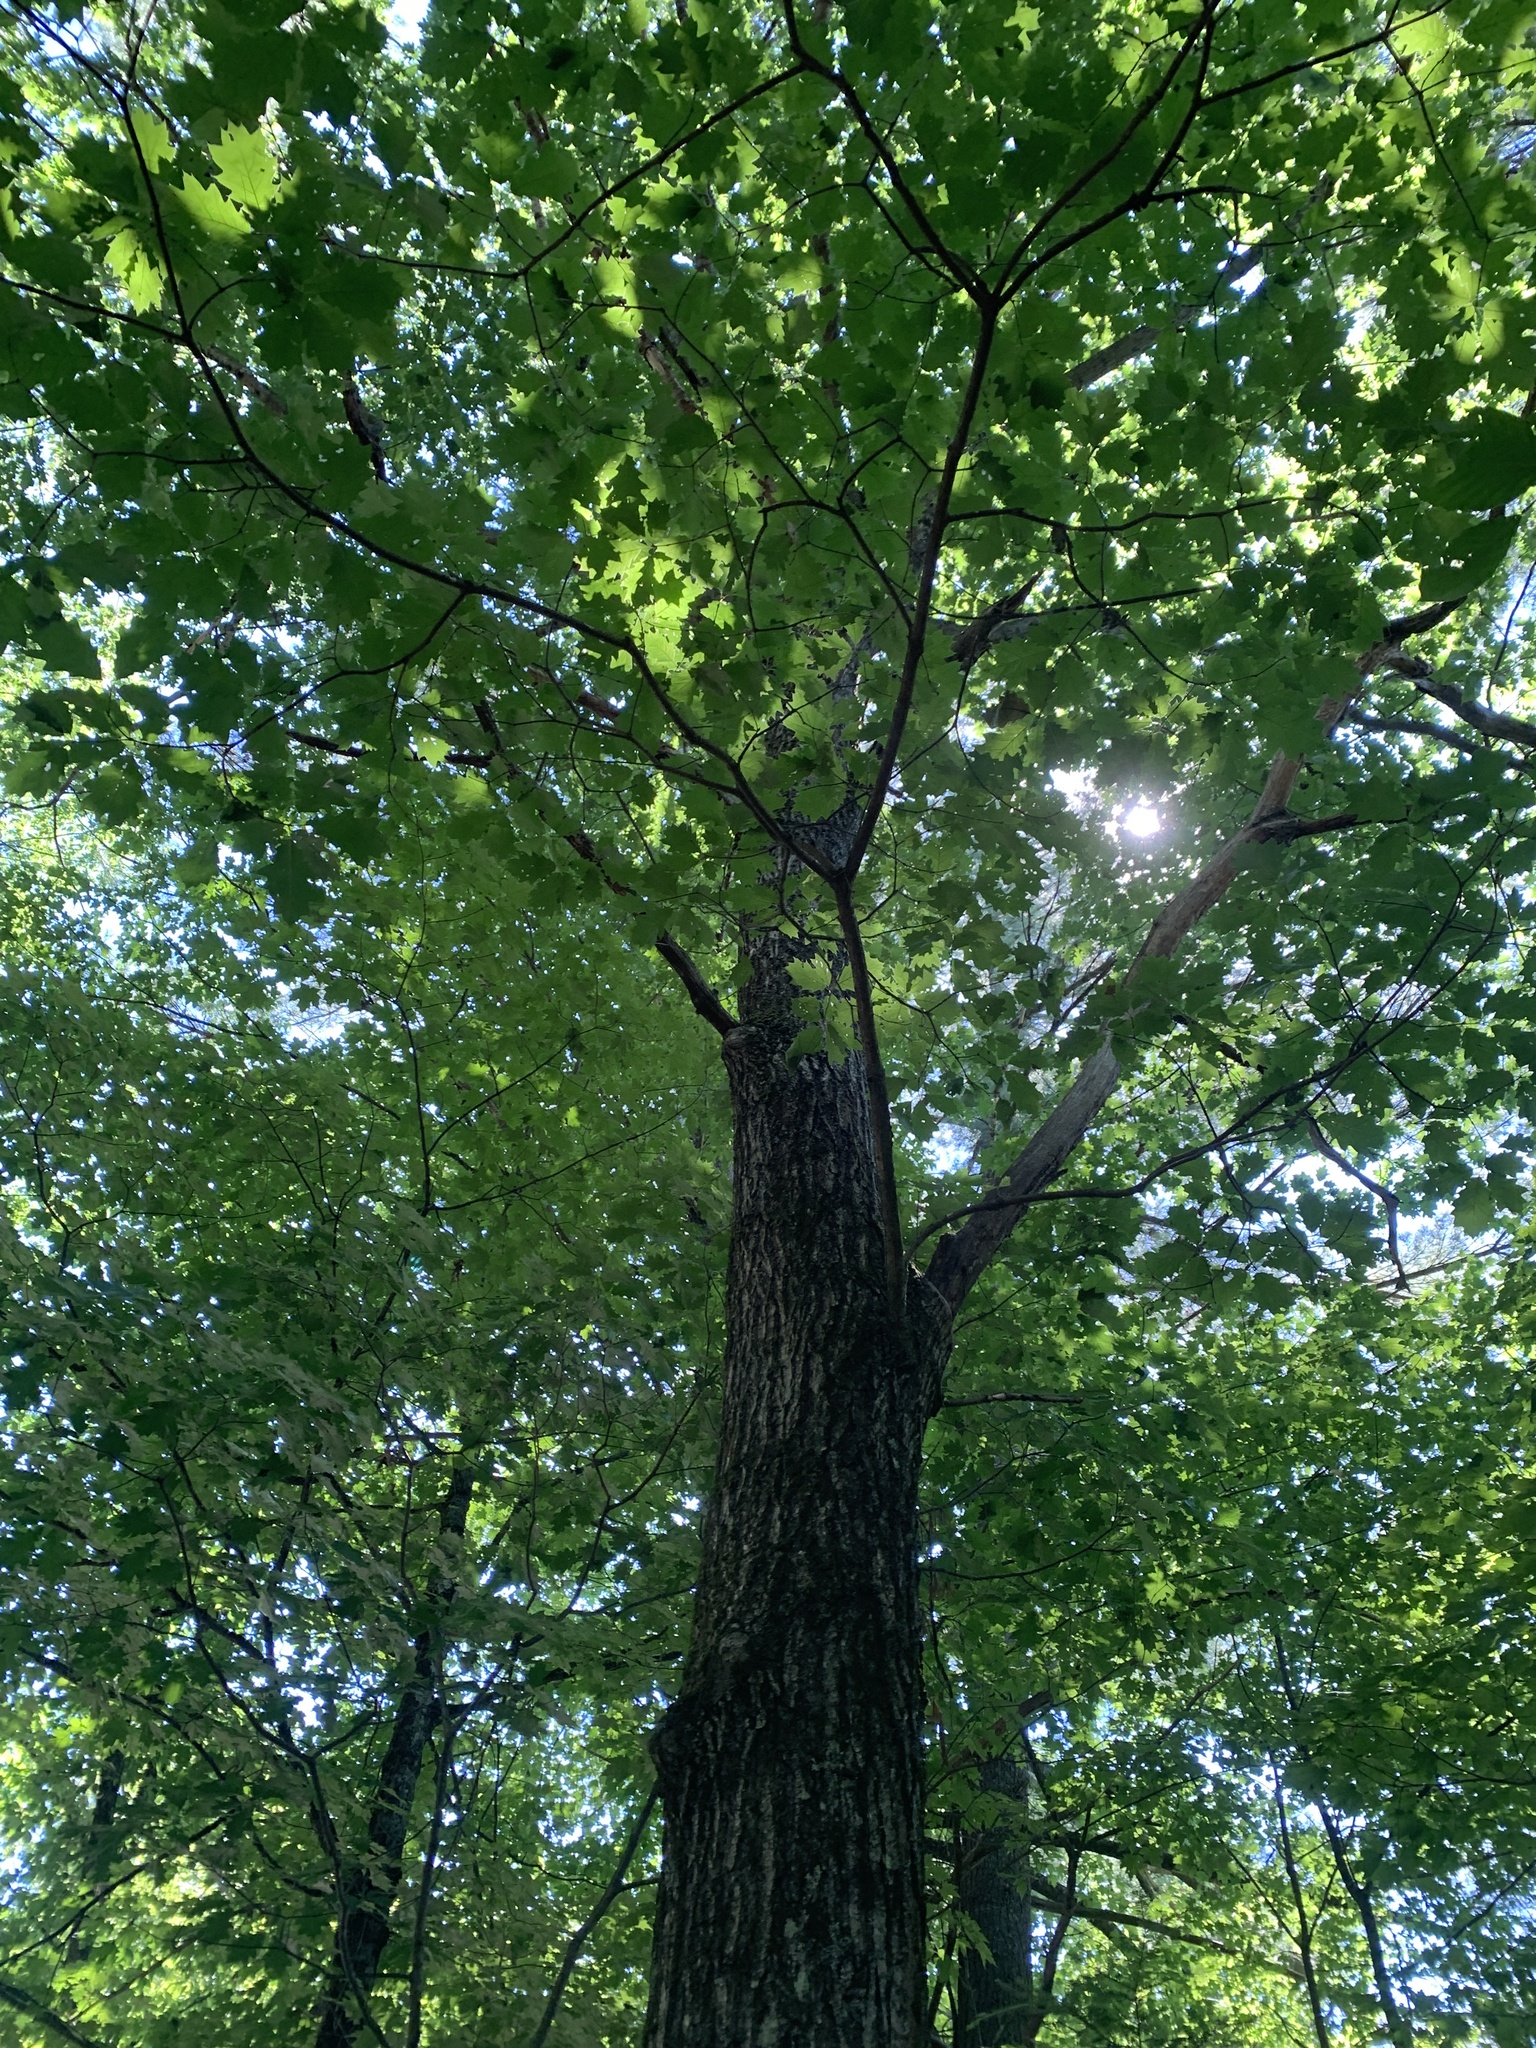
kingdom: Plantae
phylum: Tracheophyta
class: Magnoliopsida
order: Fagales
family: Fagaceae
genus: Quercus
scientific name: Quercus rubra
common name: Red oak
